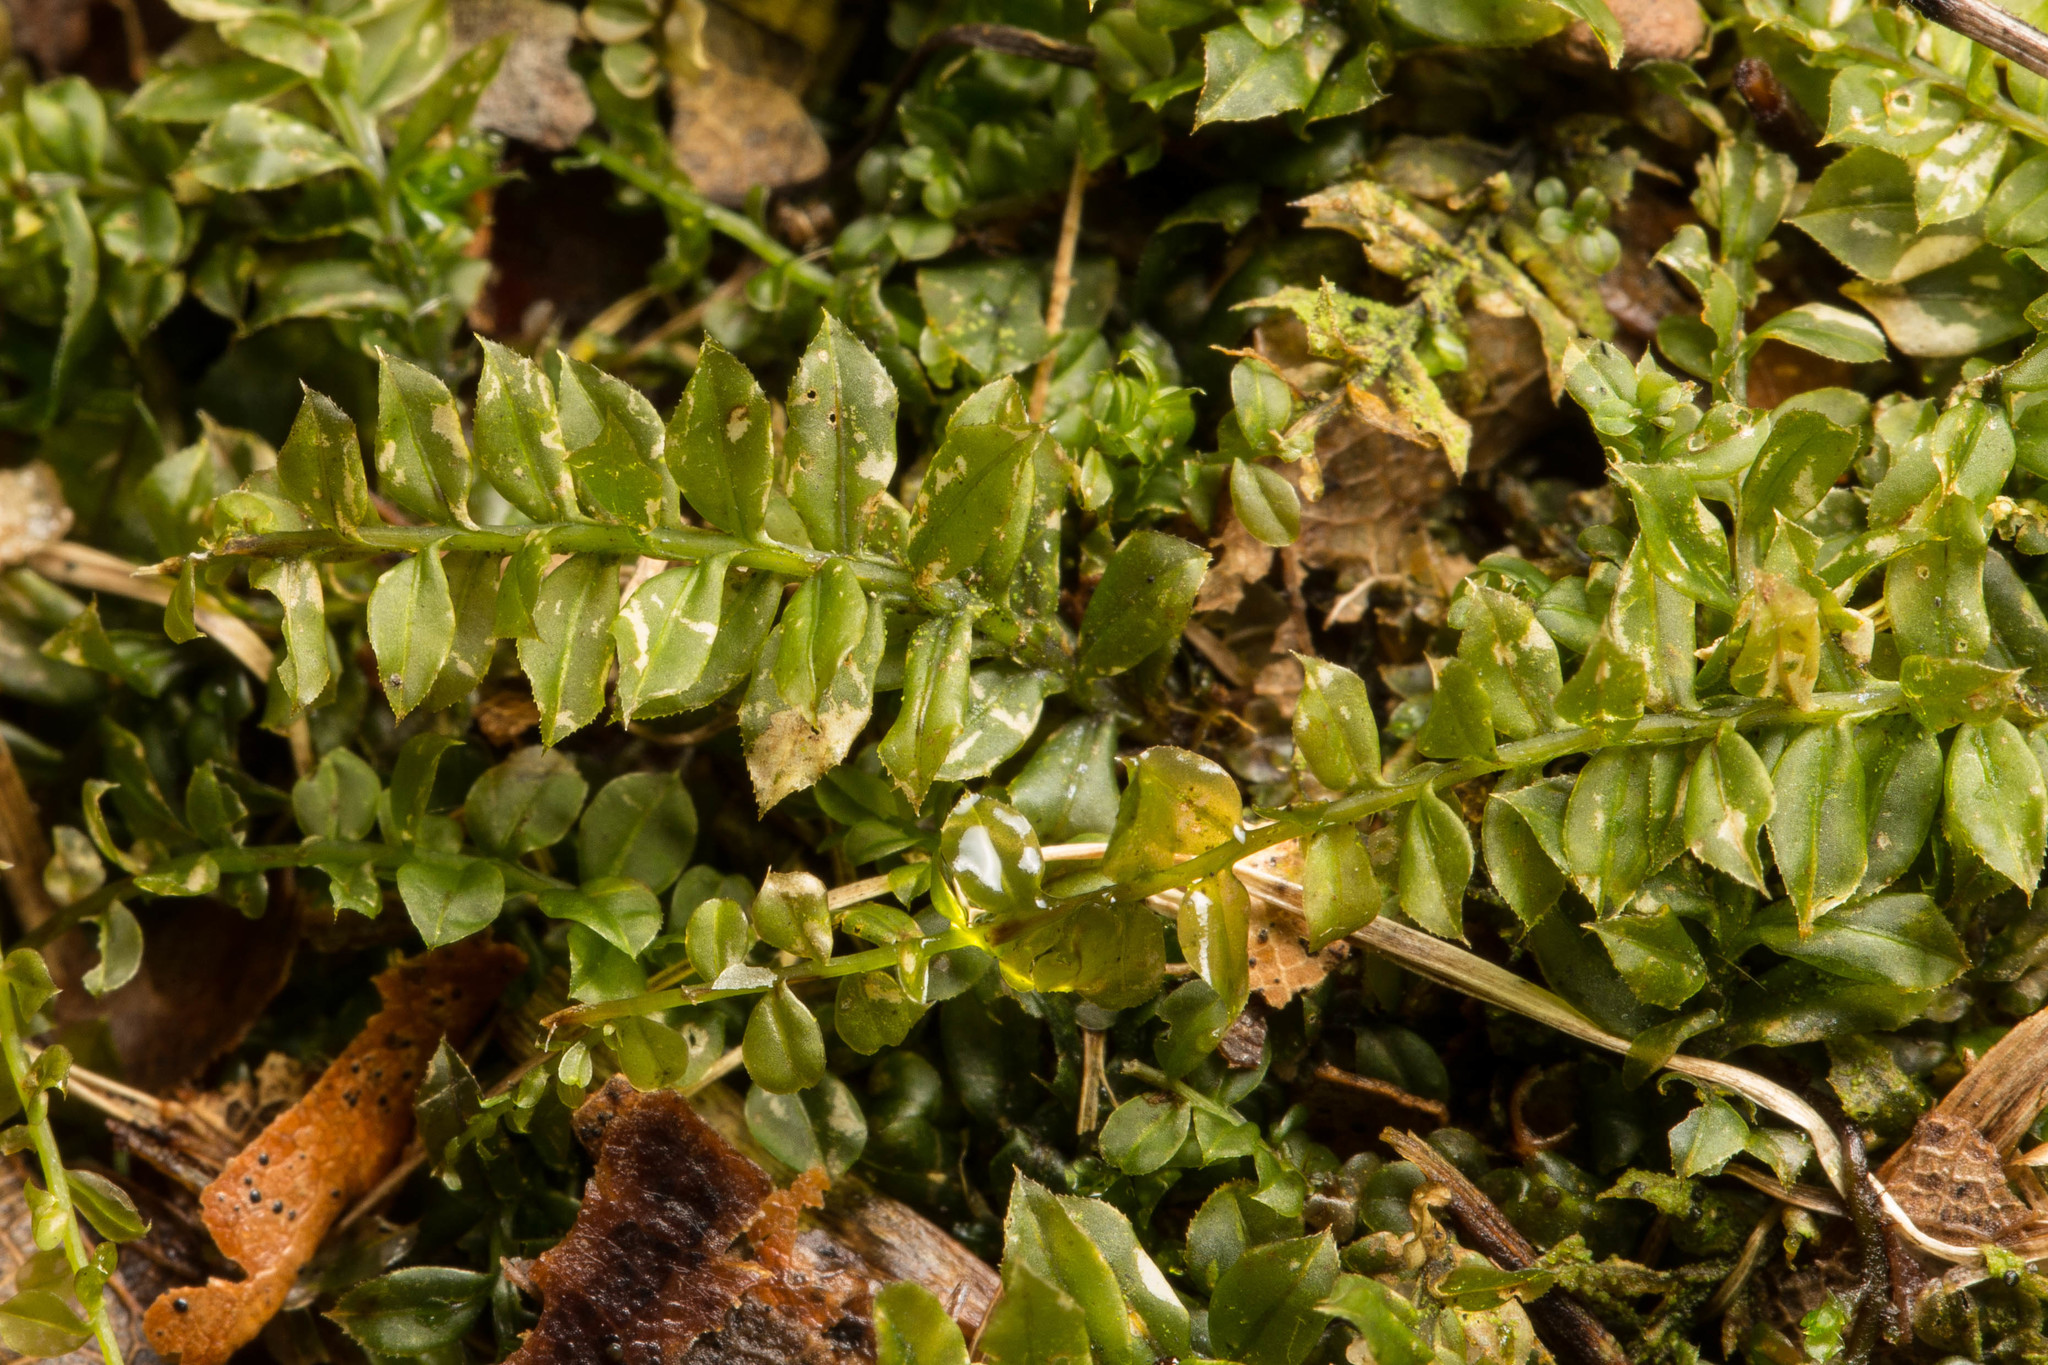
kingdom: Plantae
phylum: Bryophyta
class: Bryopsida
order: Bryales
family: Mniaceae
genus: Plagiomnium
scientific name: Plagiomnium cuspidatum
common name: Woodsy leafy moss
